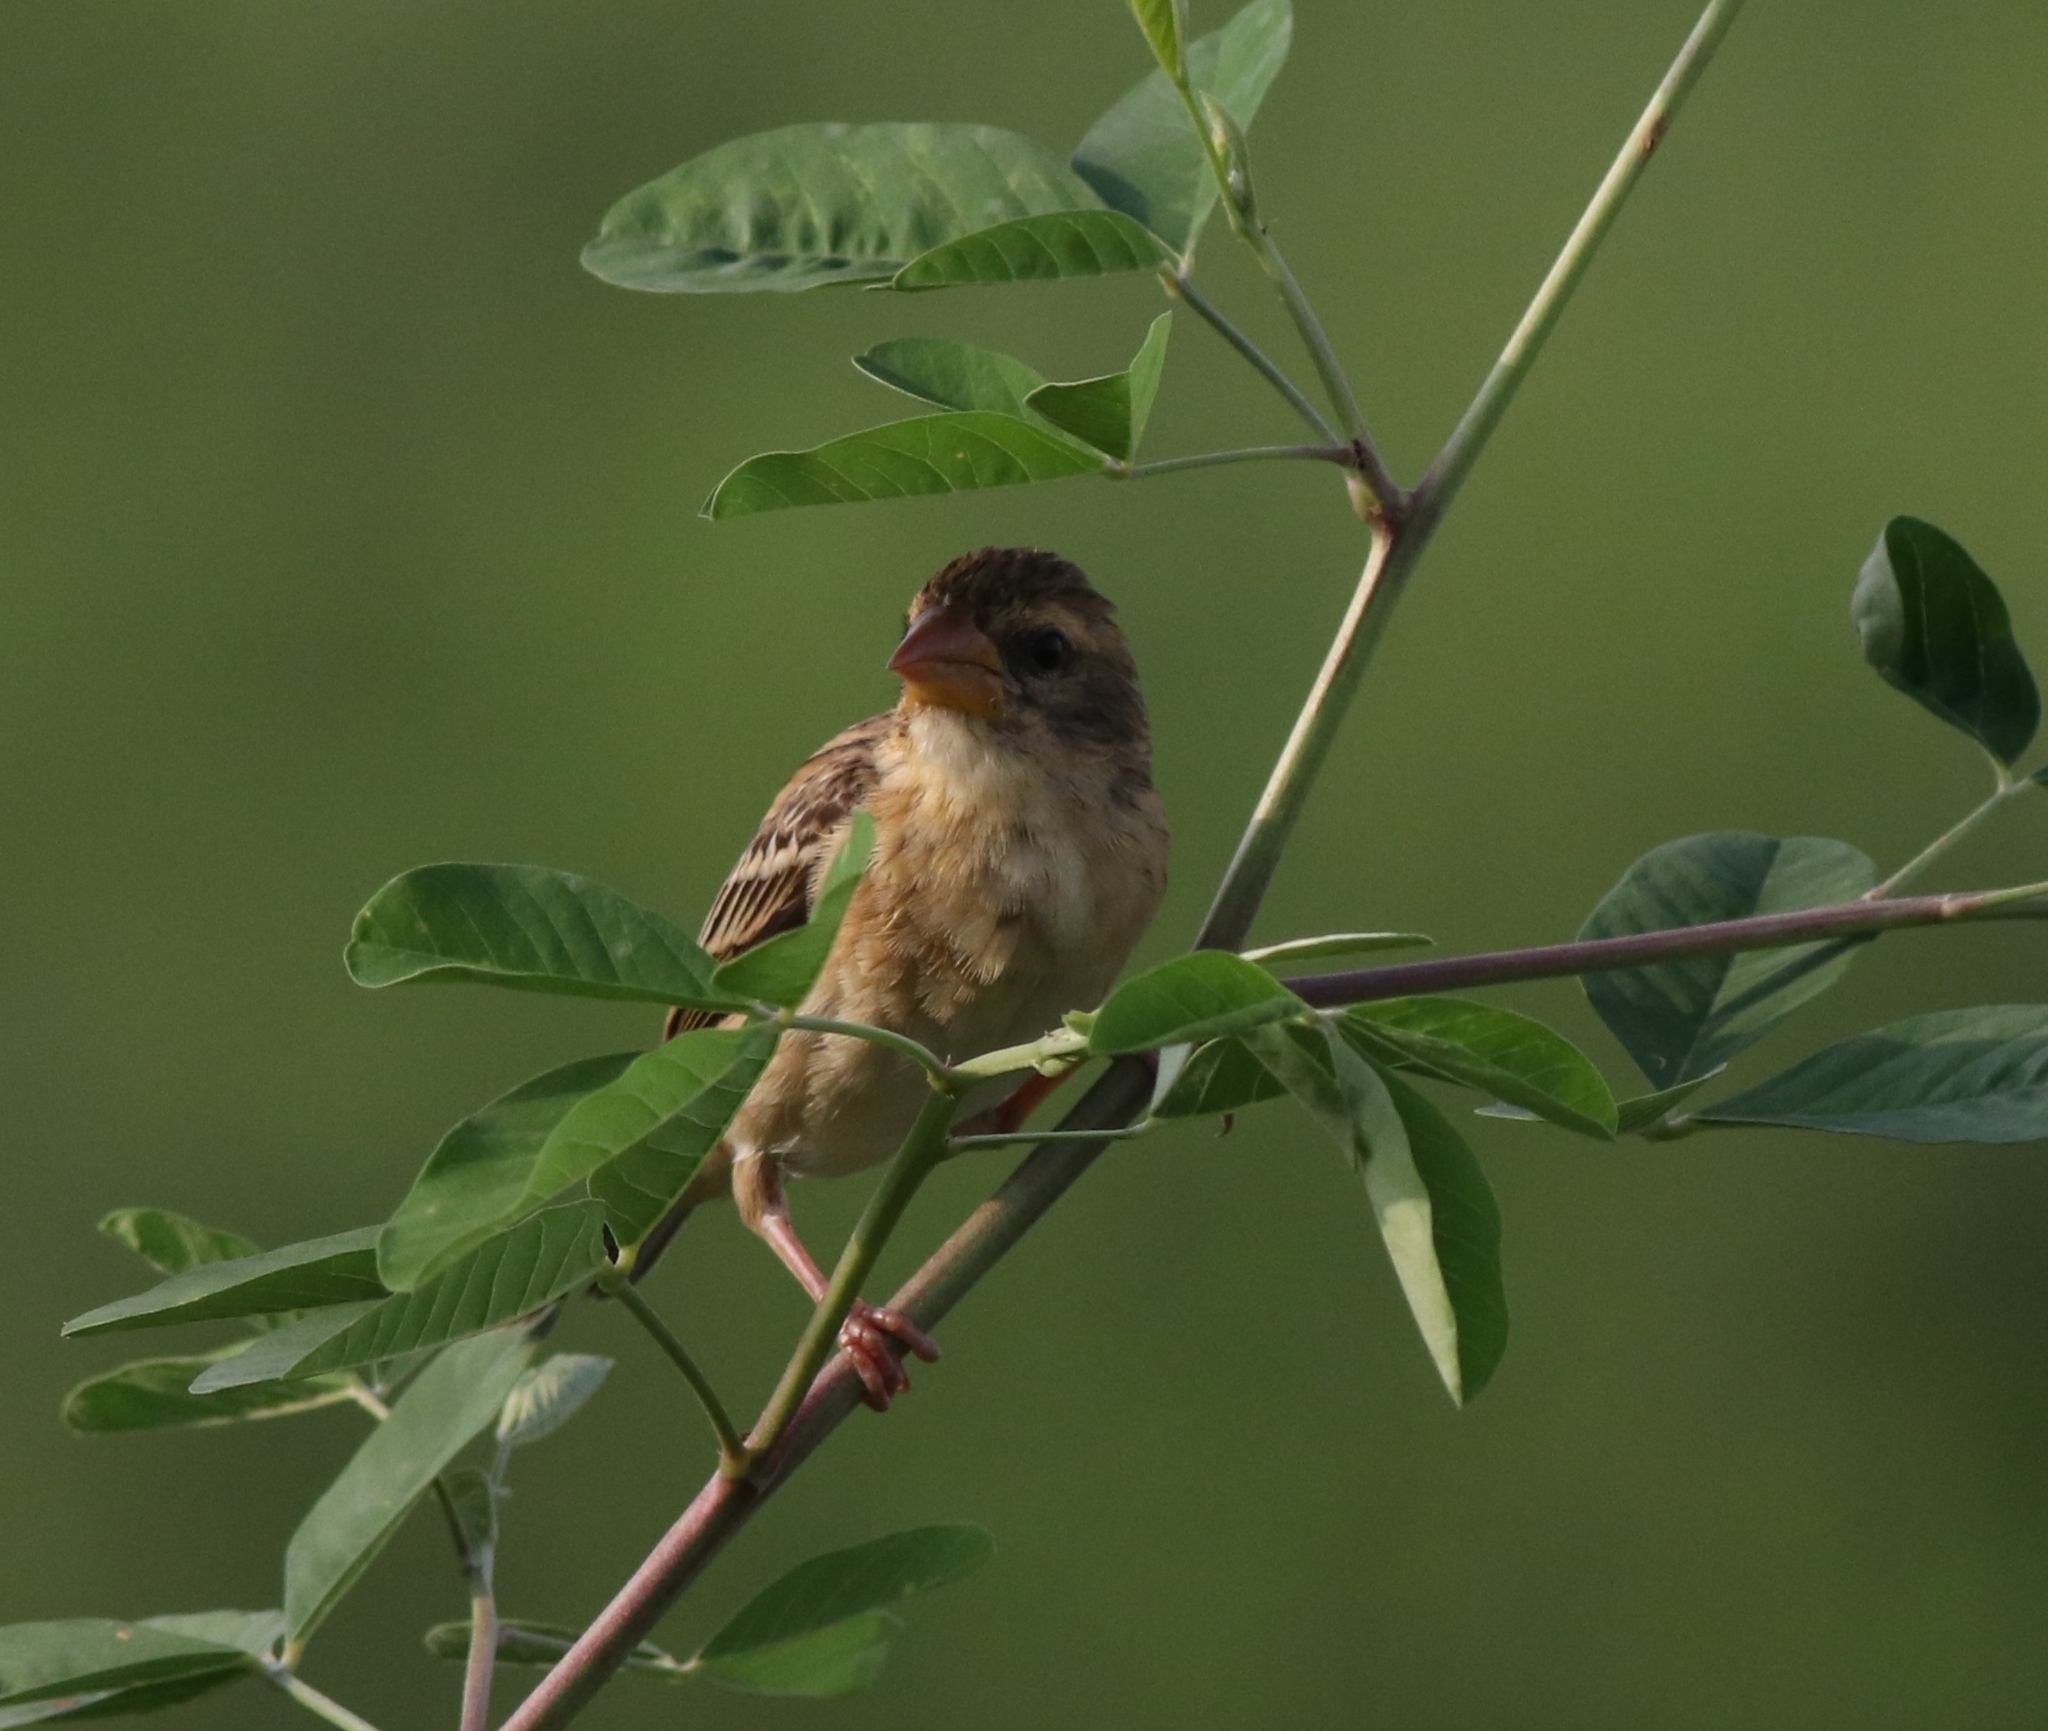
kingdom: Animalia
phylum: Chordata
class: Aves
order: Passeriformes
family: Ploceidae
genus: Ploceus
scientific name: Ploceus philippinus
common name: Baya weaver
